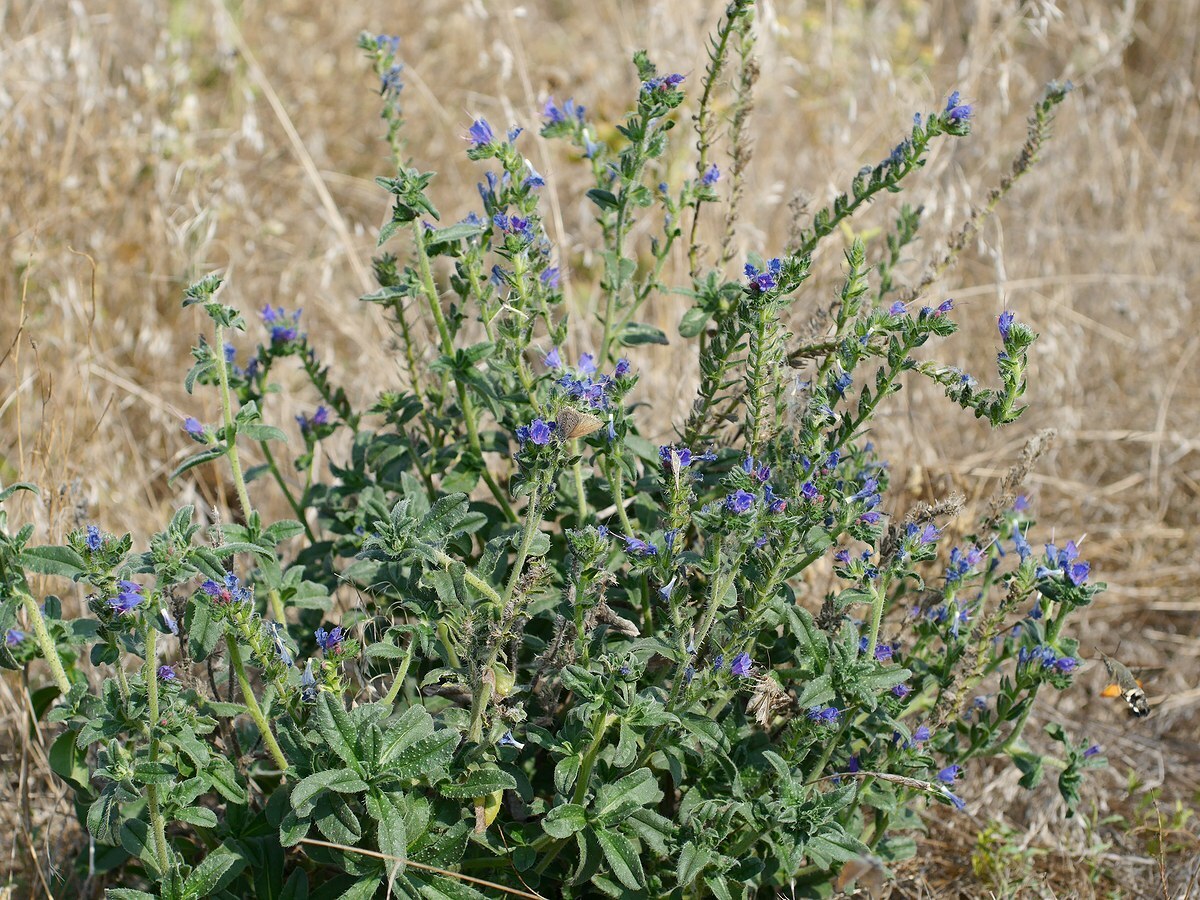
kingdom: Plantae
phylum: Tracheophyta
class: Magnoliopsida
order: Boraginales
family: Boraginaceae
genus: Echium
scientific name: Echium vulgare
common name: Common viper's bugloss
